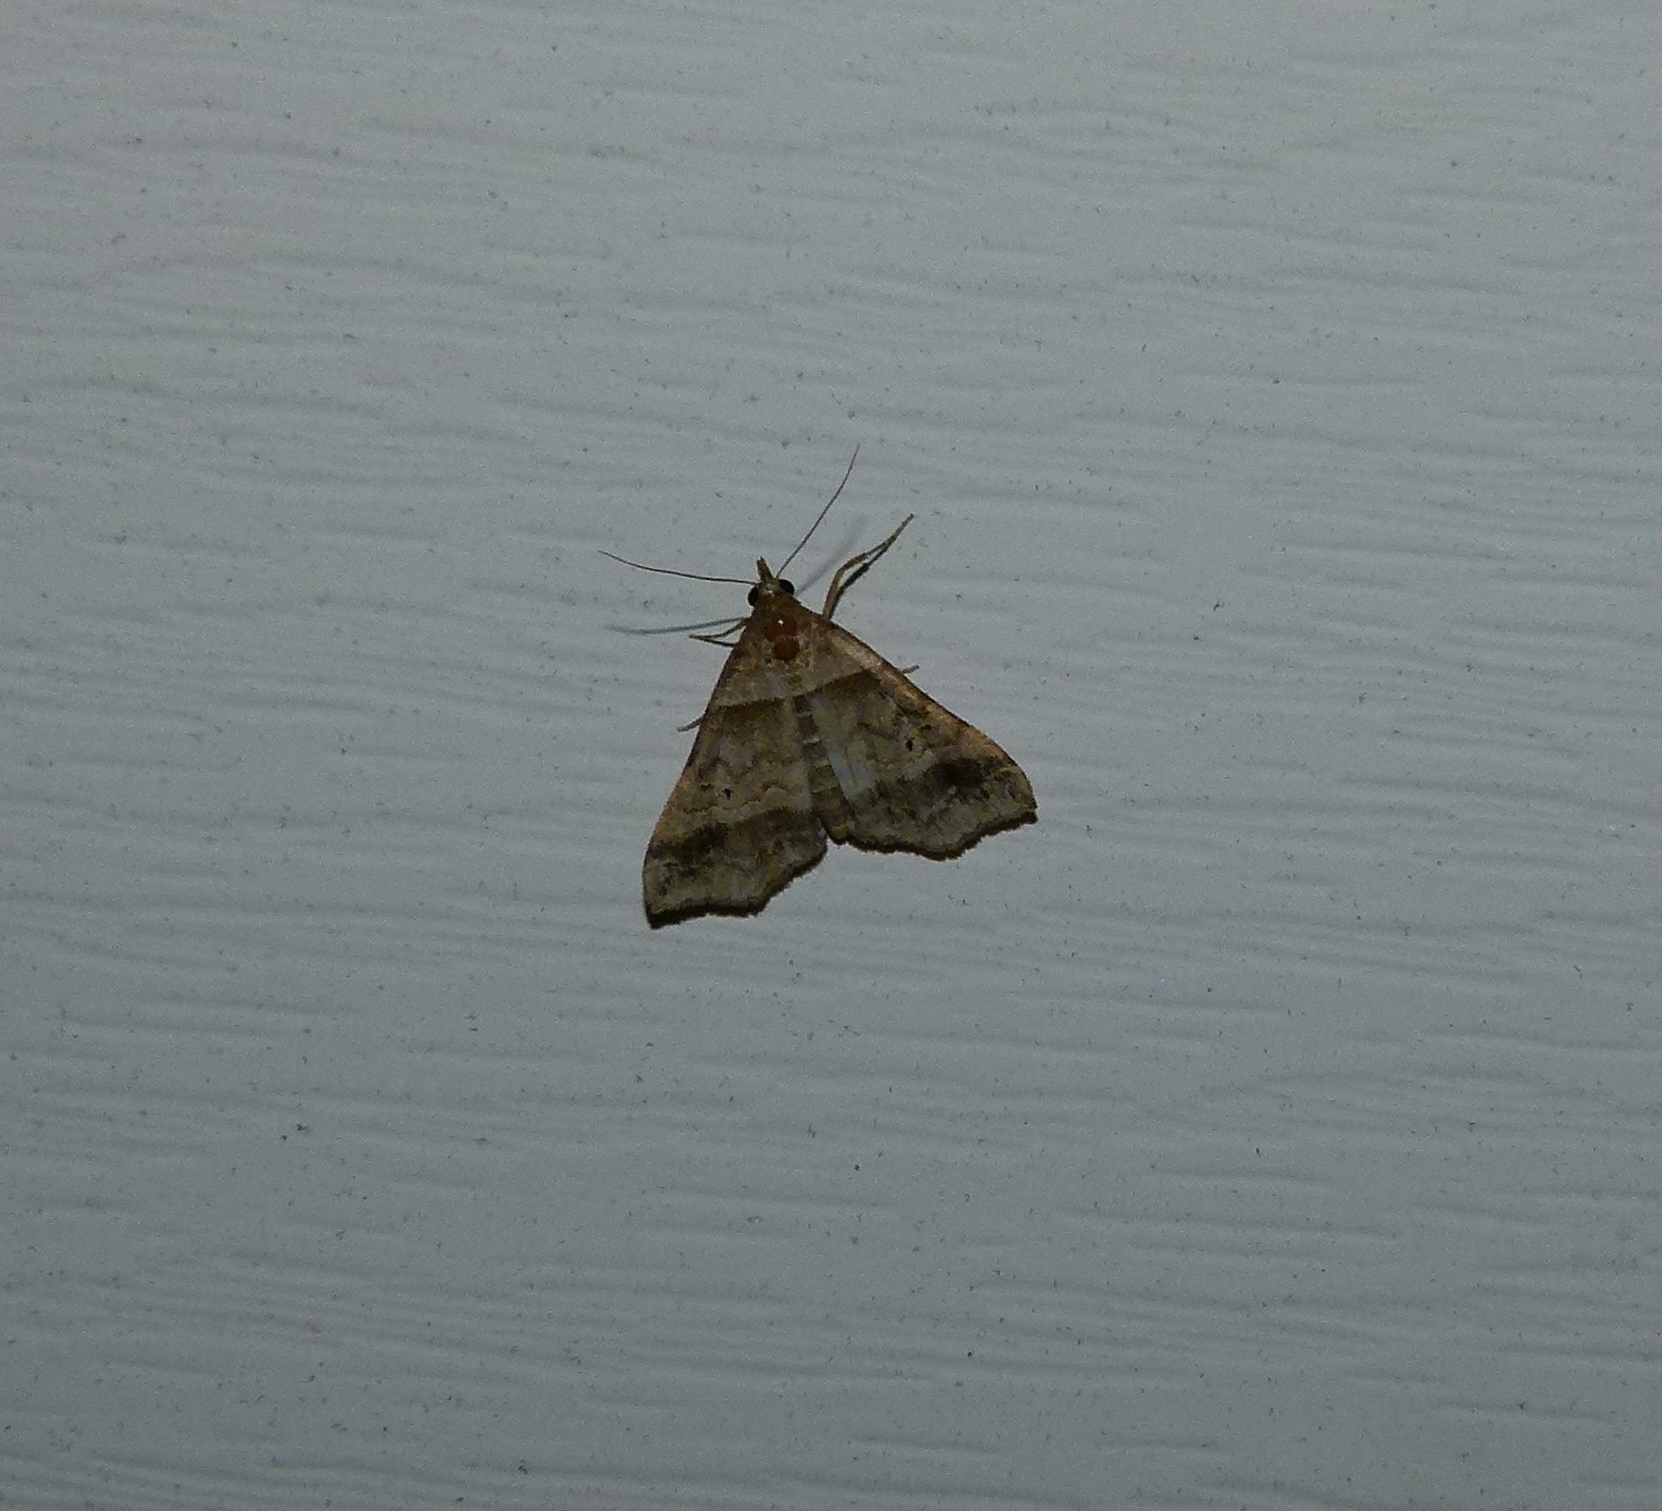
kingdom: Animalia
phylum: Arthropoda
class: Insecta
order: Lepidoptera
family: Erebidae
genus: Phaeolita
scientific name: Phaeolita pyramusalis
